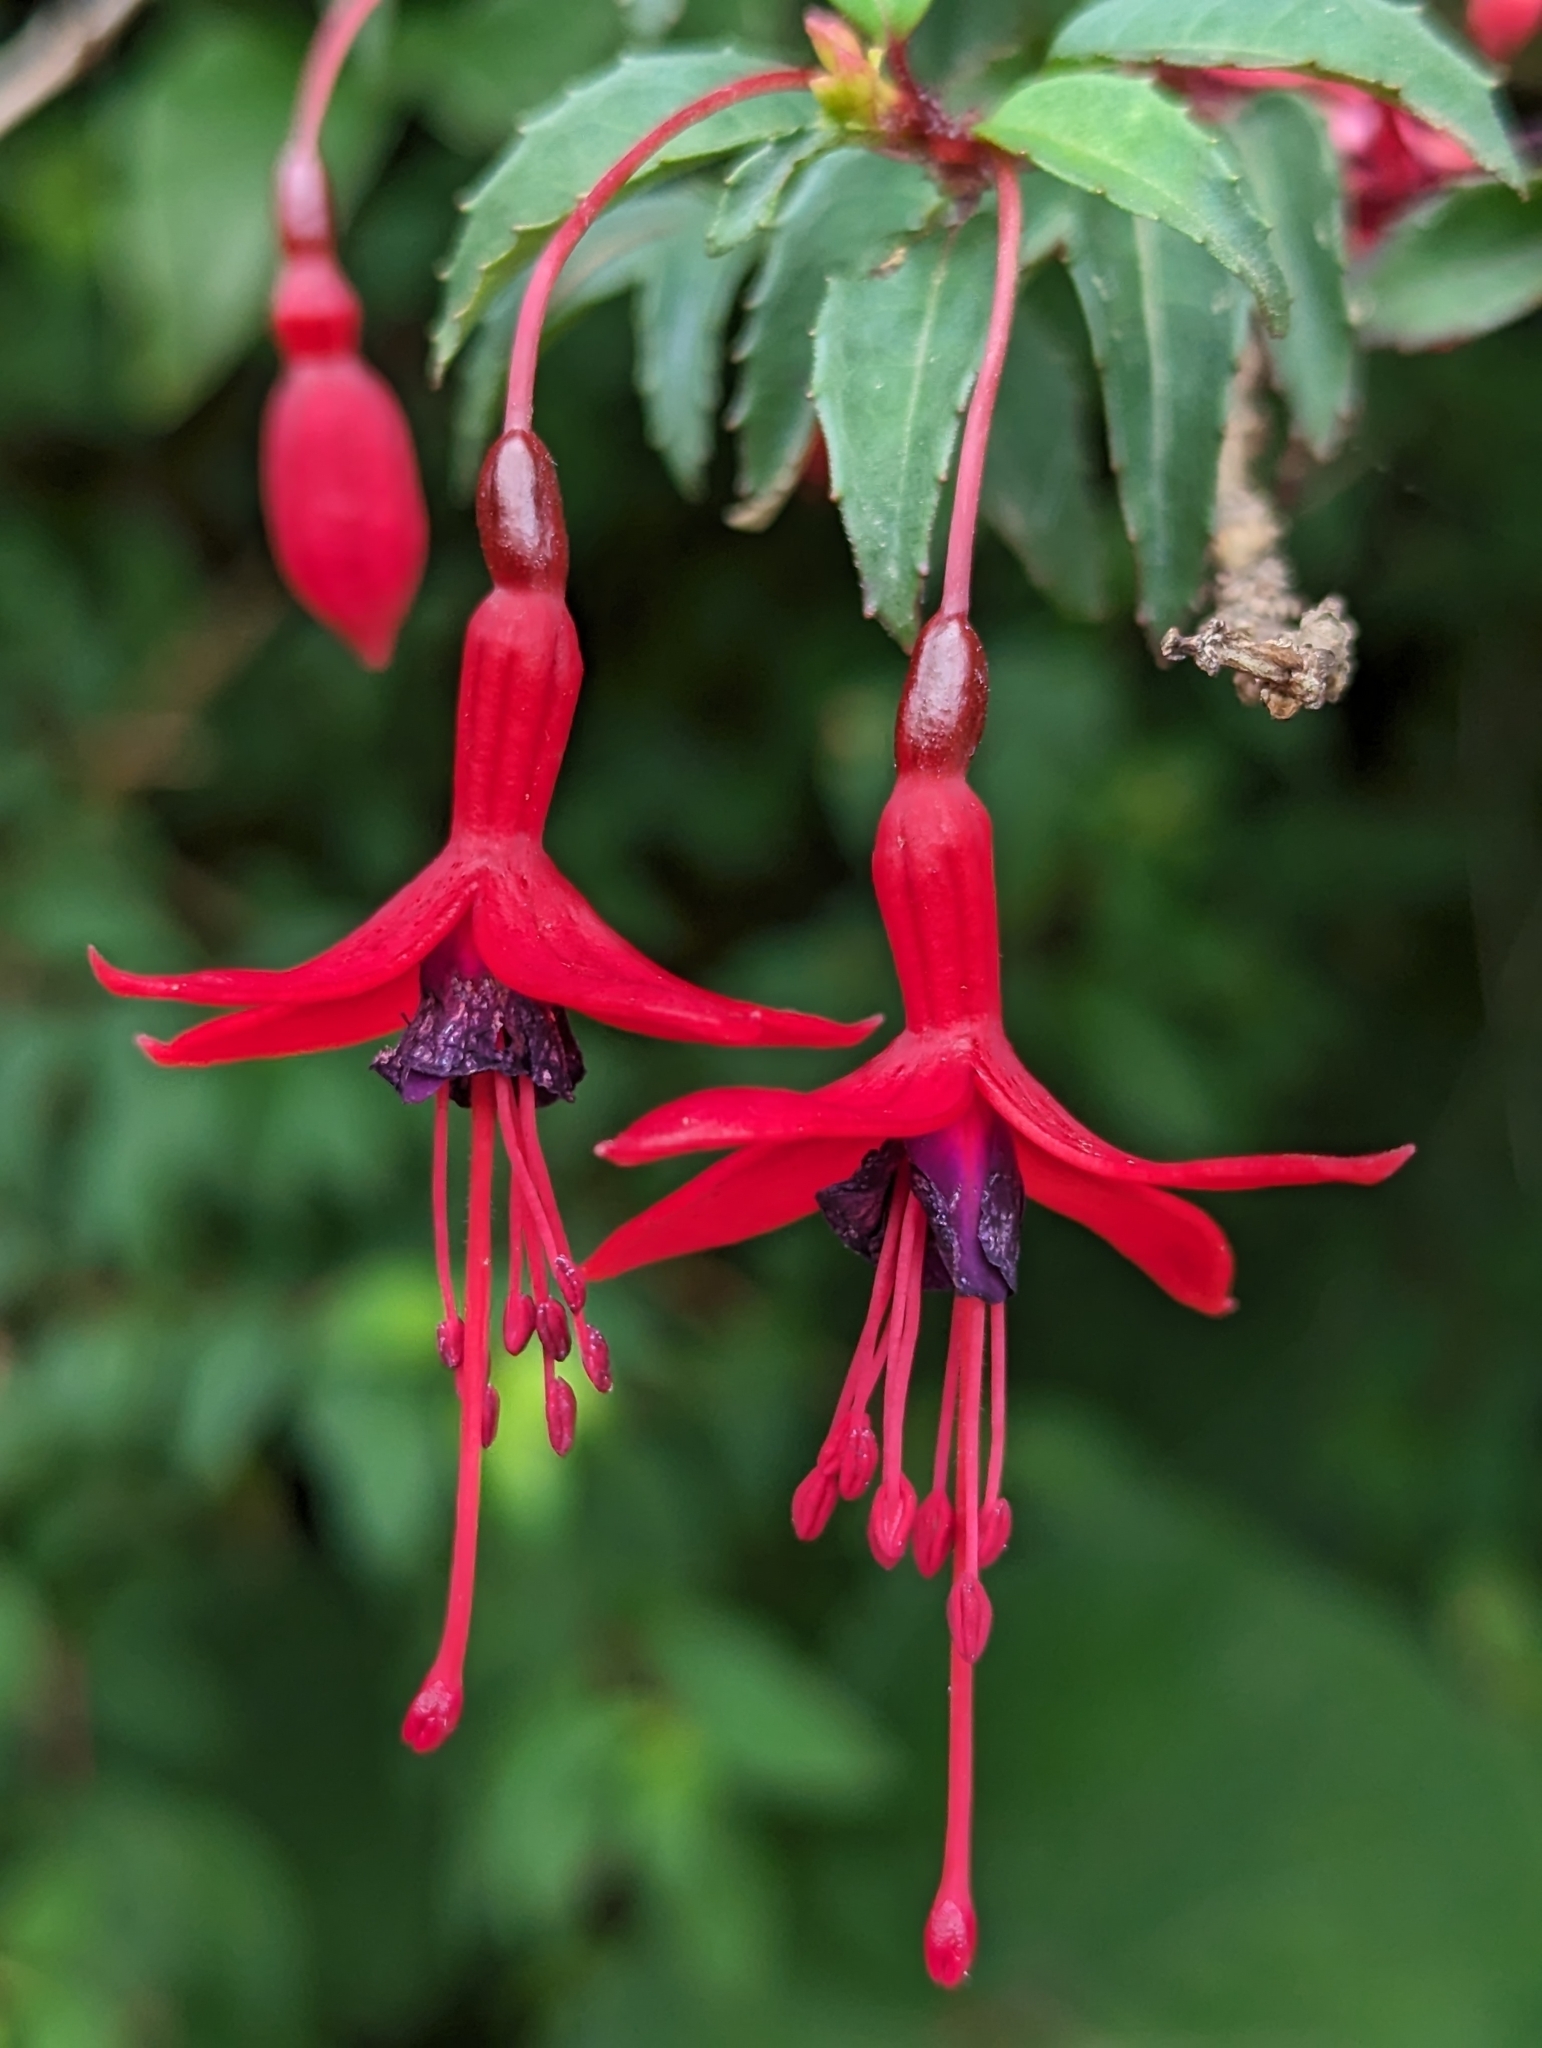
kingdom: Plantae
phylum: Tracheophyta
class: Magnoliopsida
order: Myrtales
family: Onagraceae
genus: Fuchsia
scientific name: Fuchsia magellanica
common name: Hardy fuchsia
